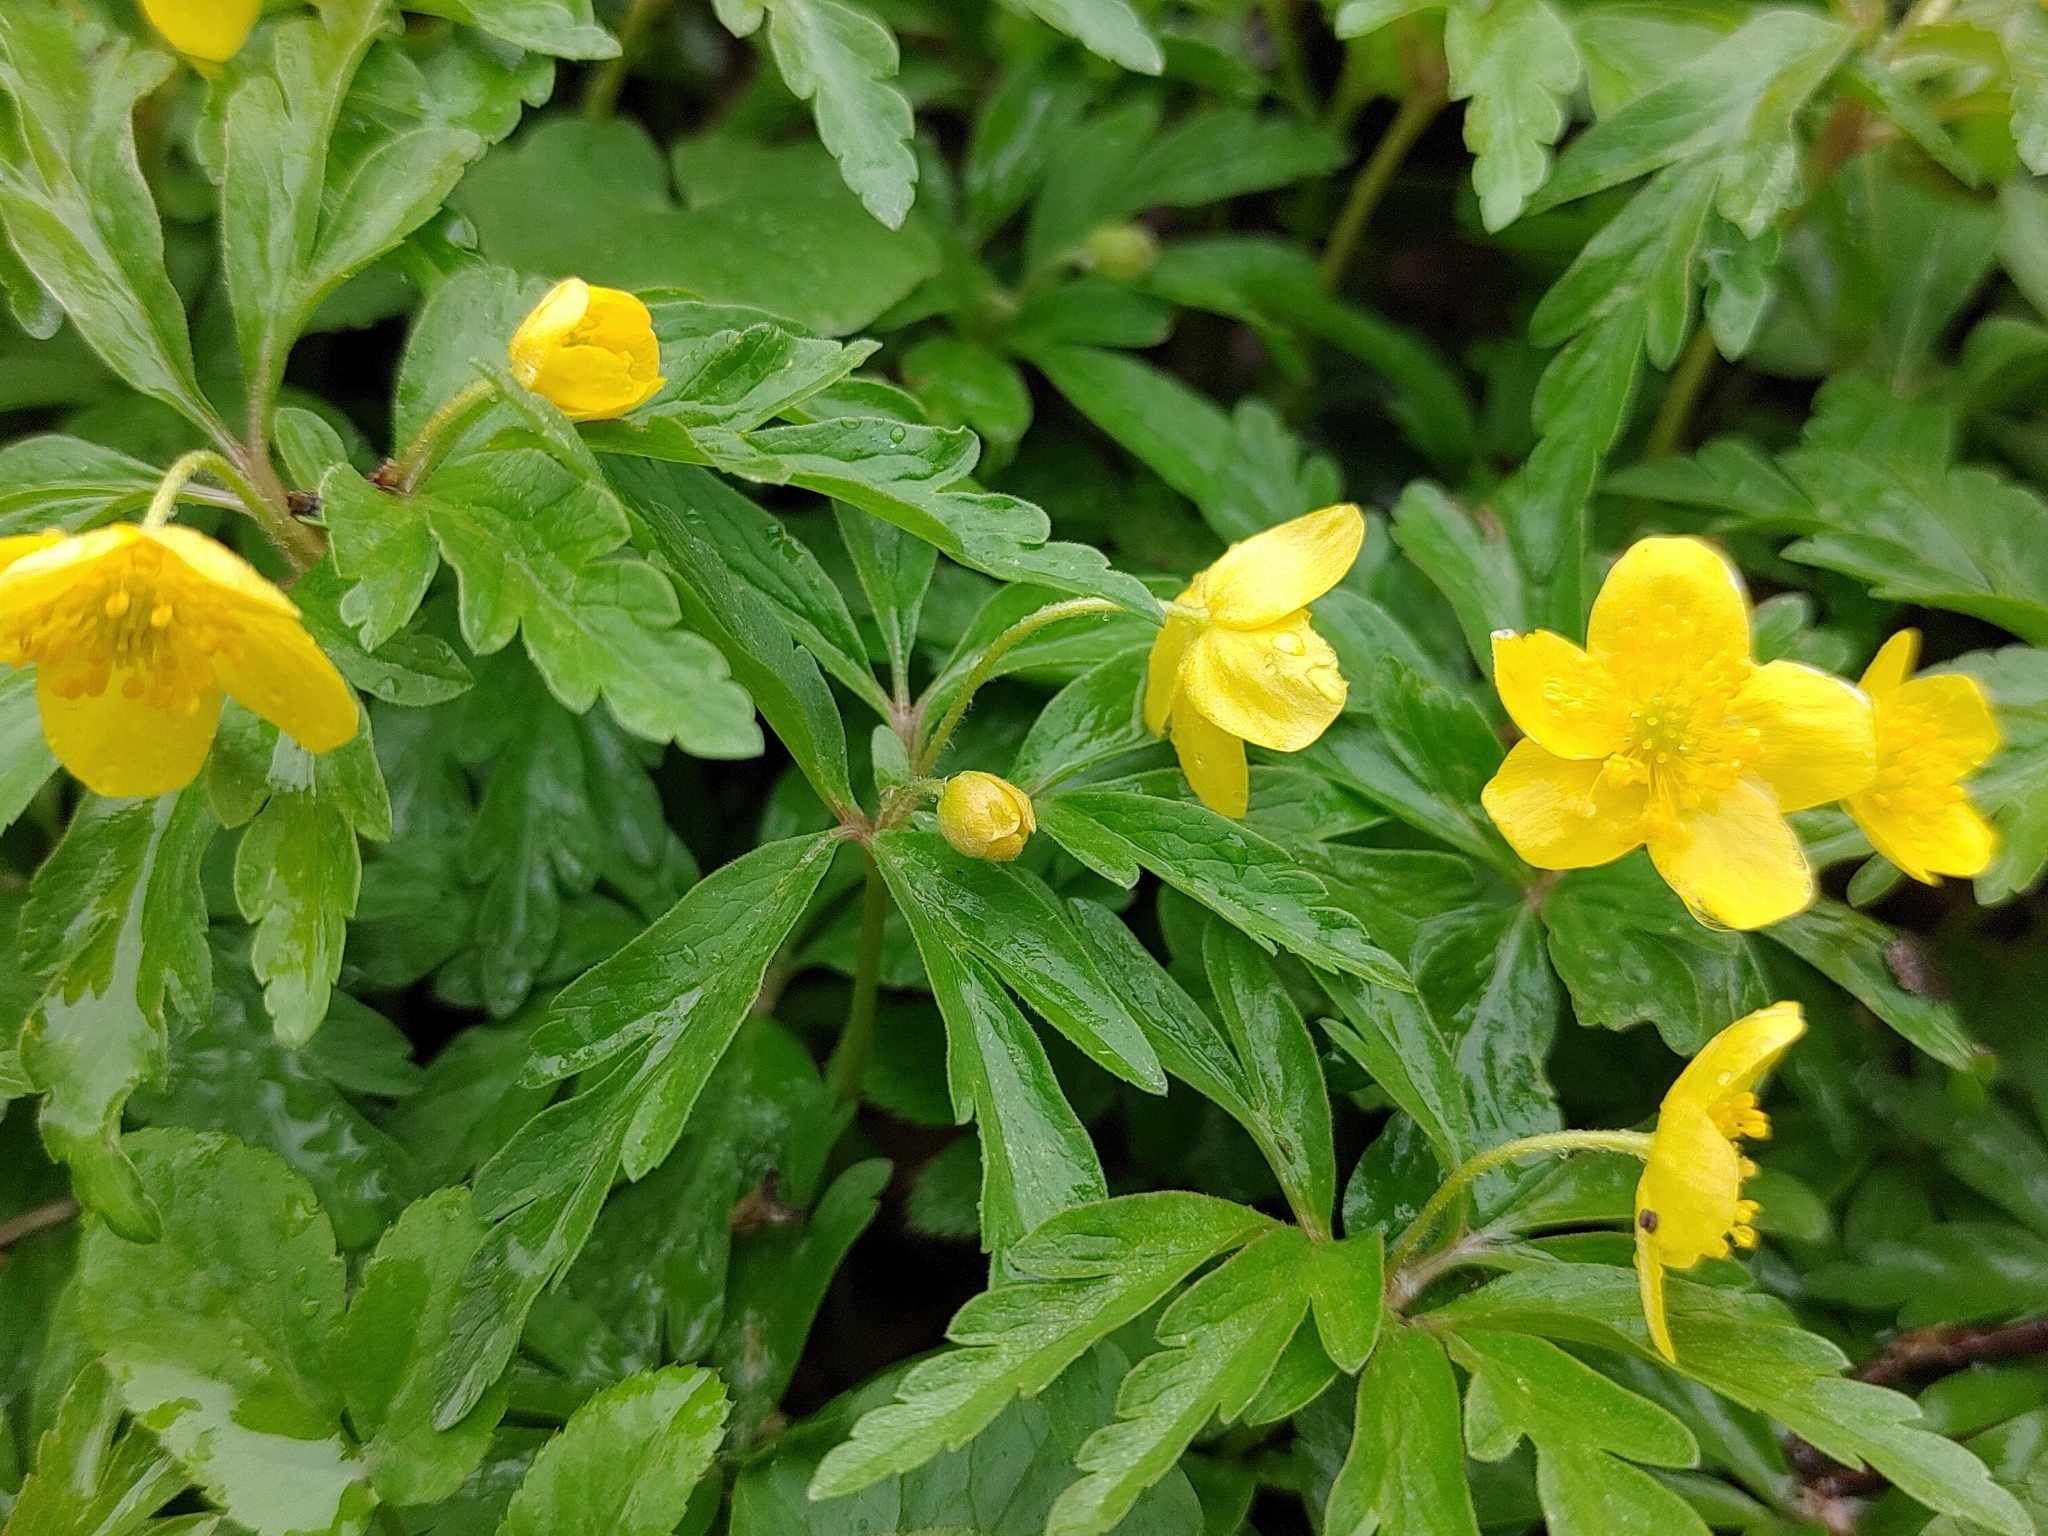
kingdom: Plantae
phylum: Tracheophyta
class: Magnoliopsida
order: Ranunculales
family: Ranunculaceae
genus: Anemone
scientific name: Anemone ranunculoides
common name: Yellow anemone
